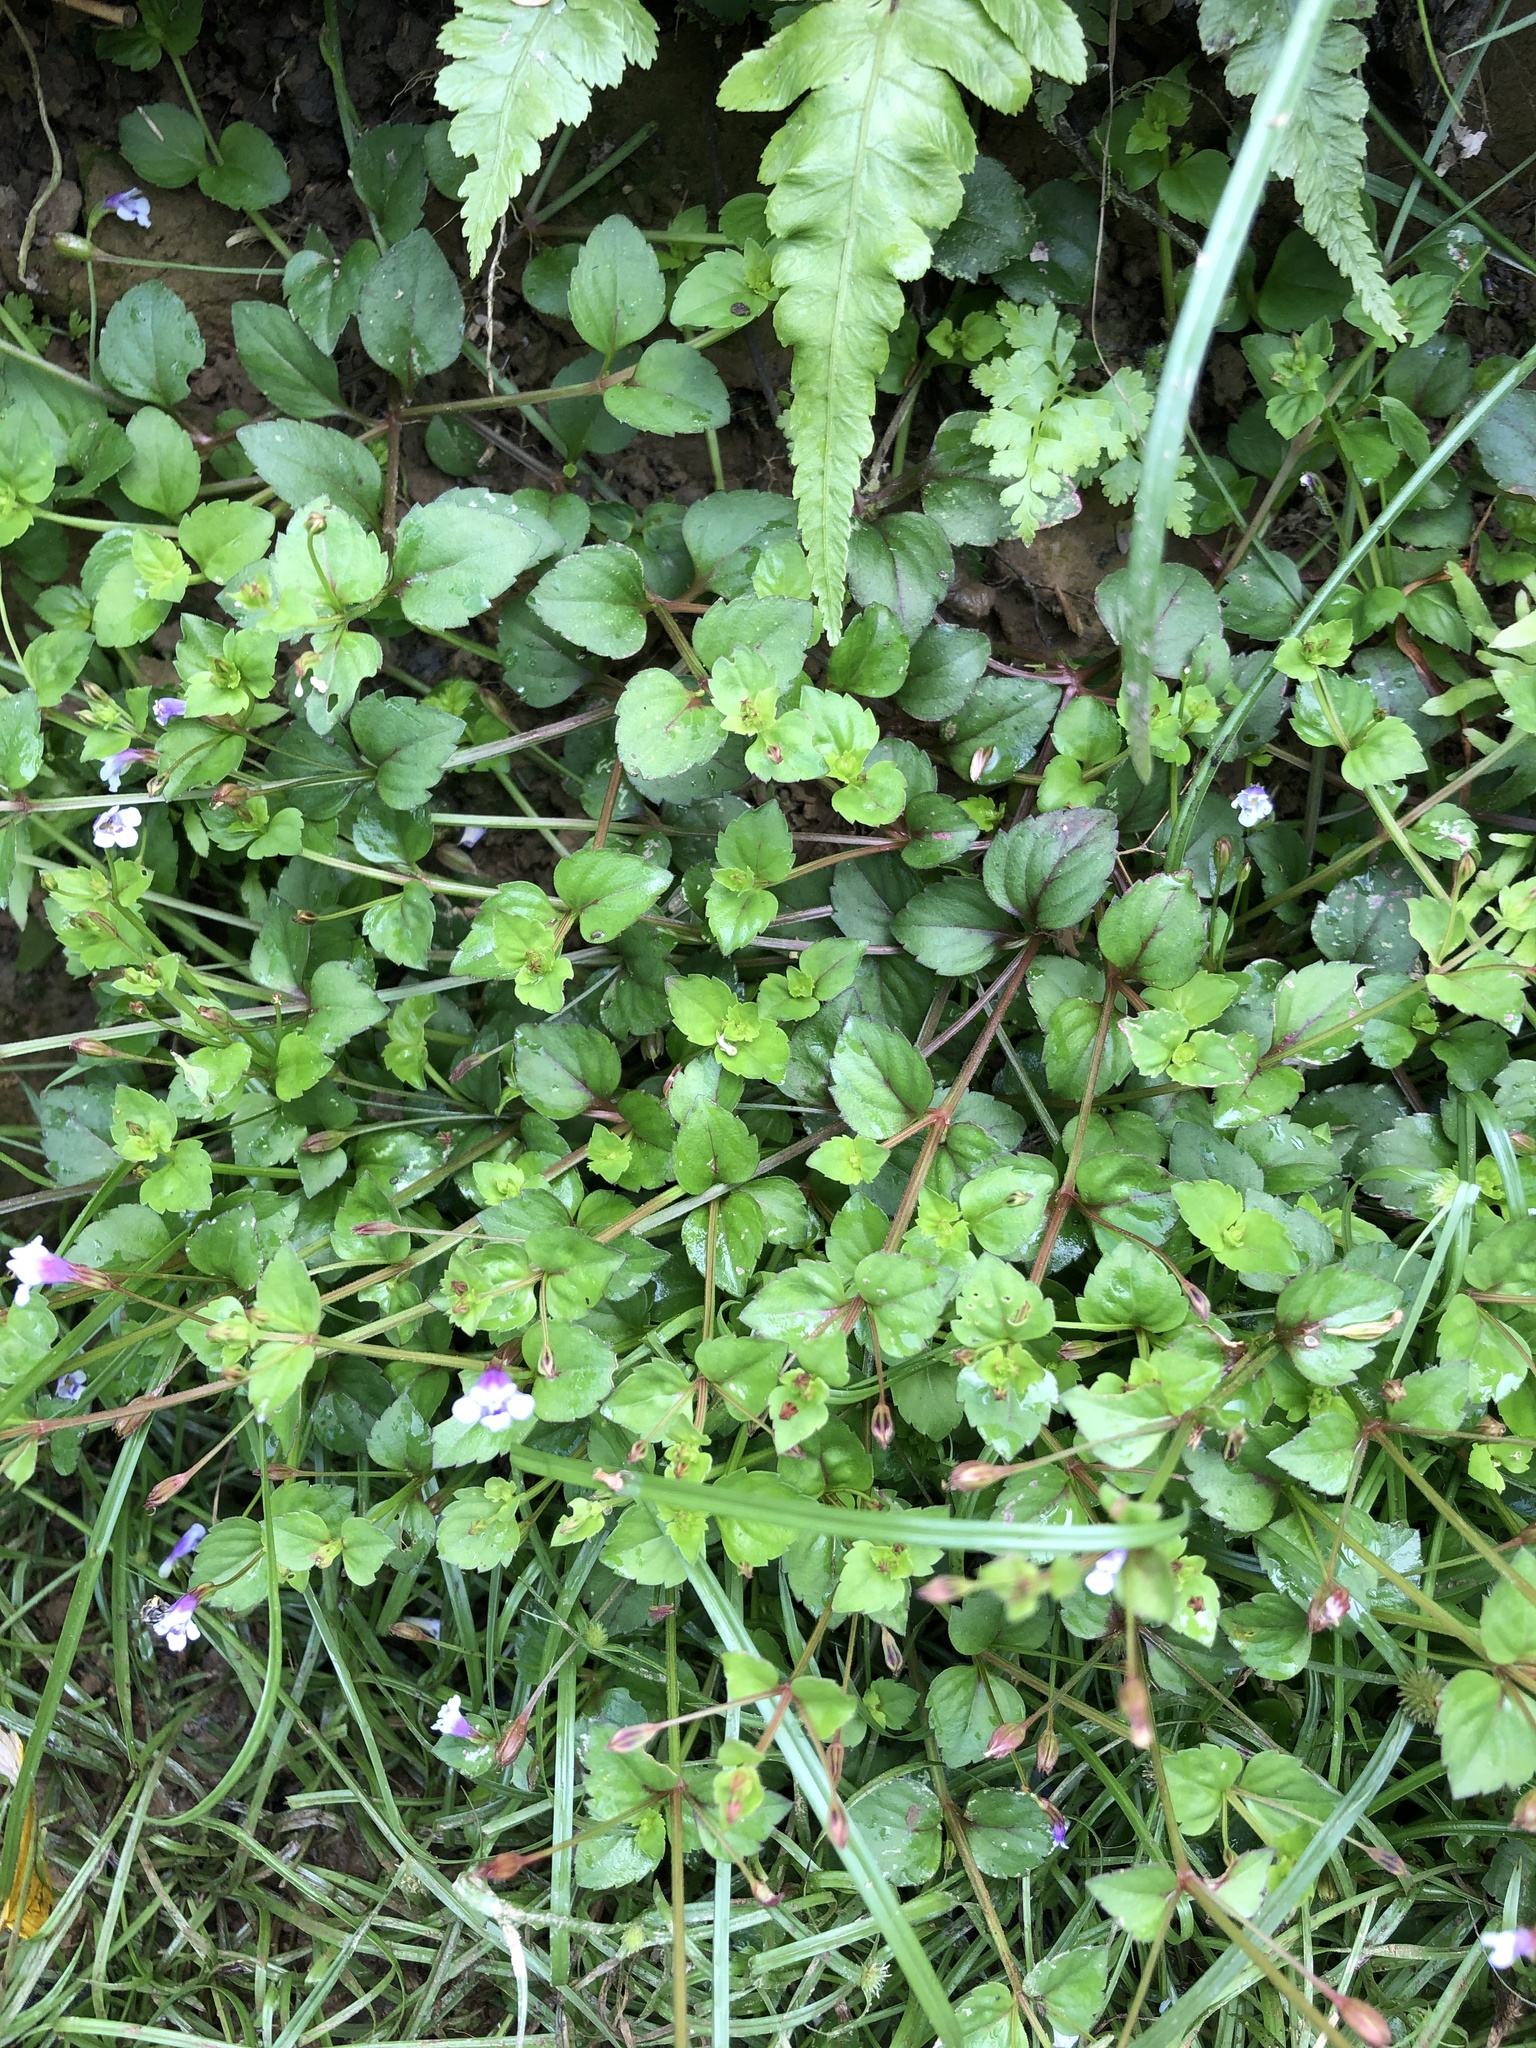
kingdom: Plantae
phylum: Tracheophyta
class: Magnoliopsida
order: Lamiales
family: Linderniaceae
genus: Torenia
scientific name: Torenia crustacea
